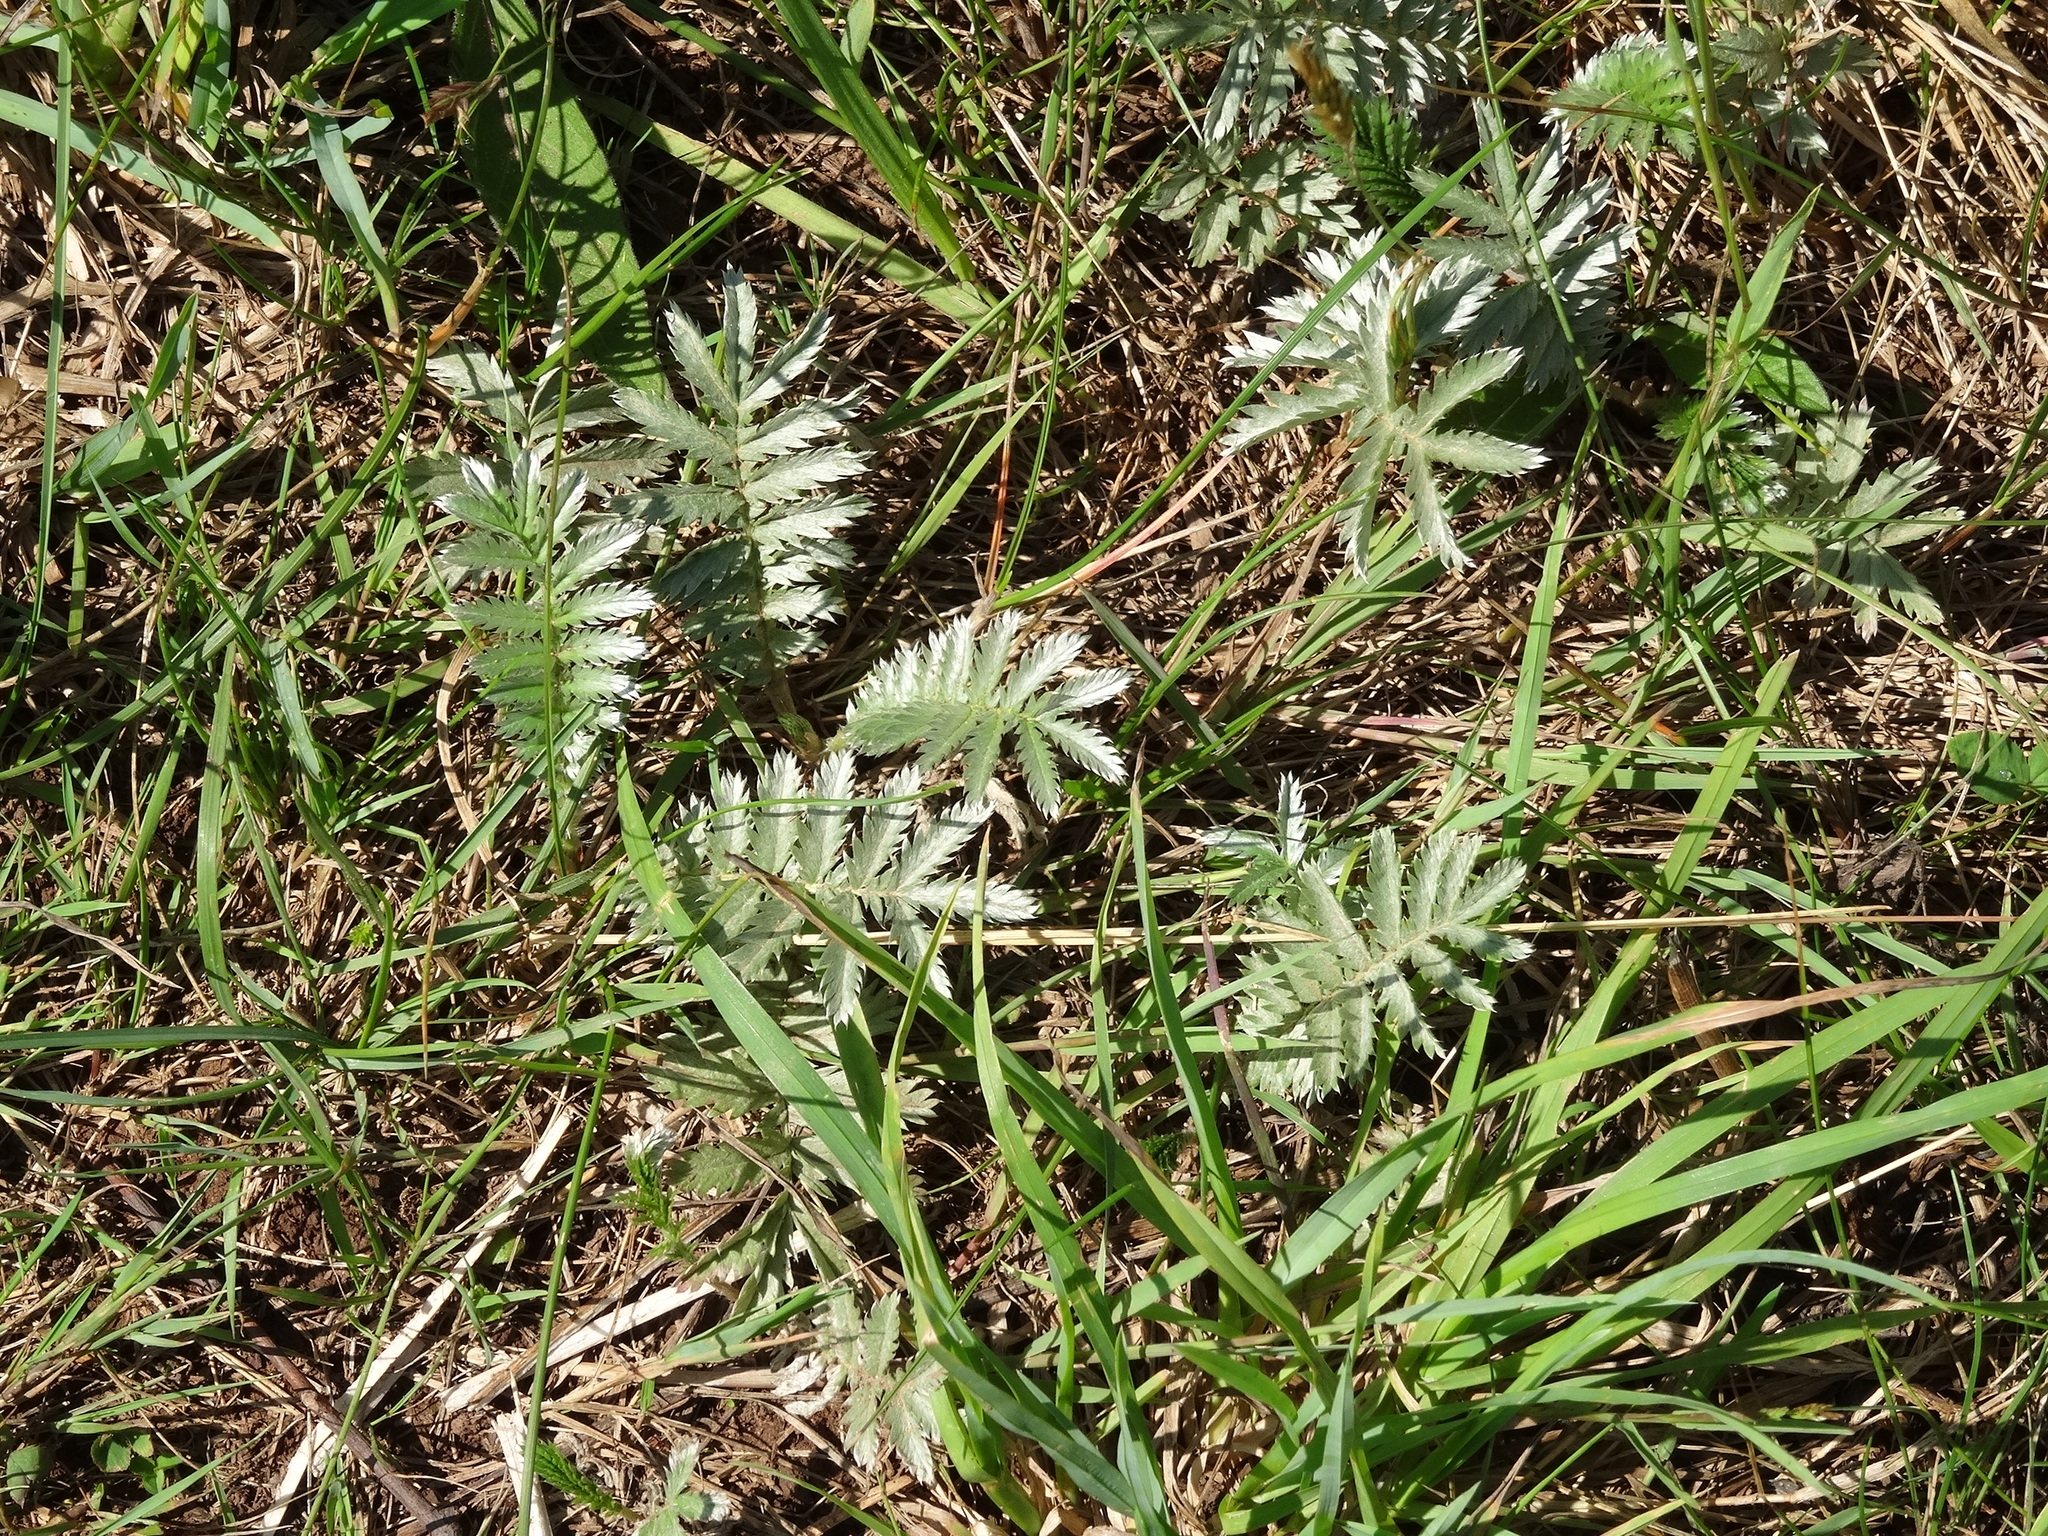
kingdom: Plantae
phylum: Tracheophyta
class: Magnoliopsida
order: Rosales
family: Rosaceae
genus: Argentina
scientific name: Argentina anserina
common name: Common silverweed
